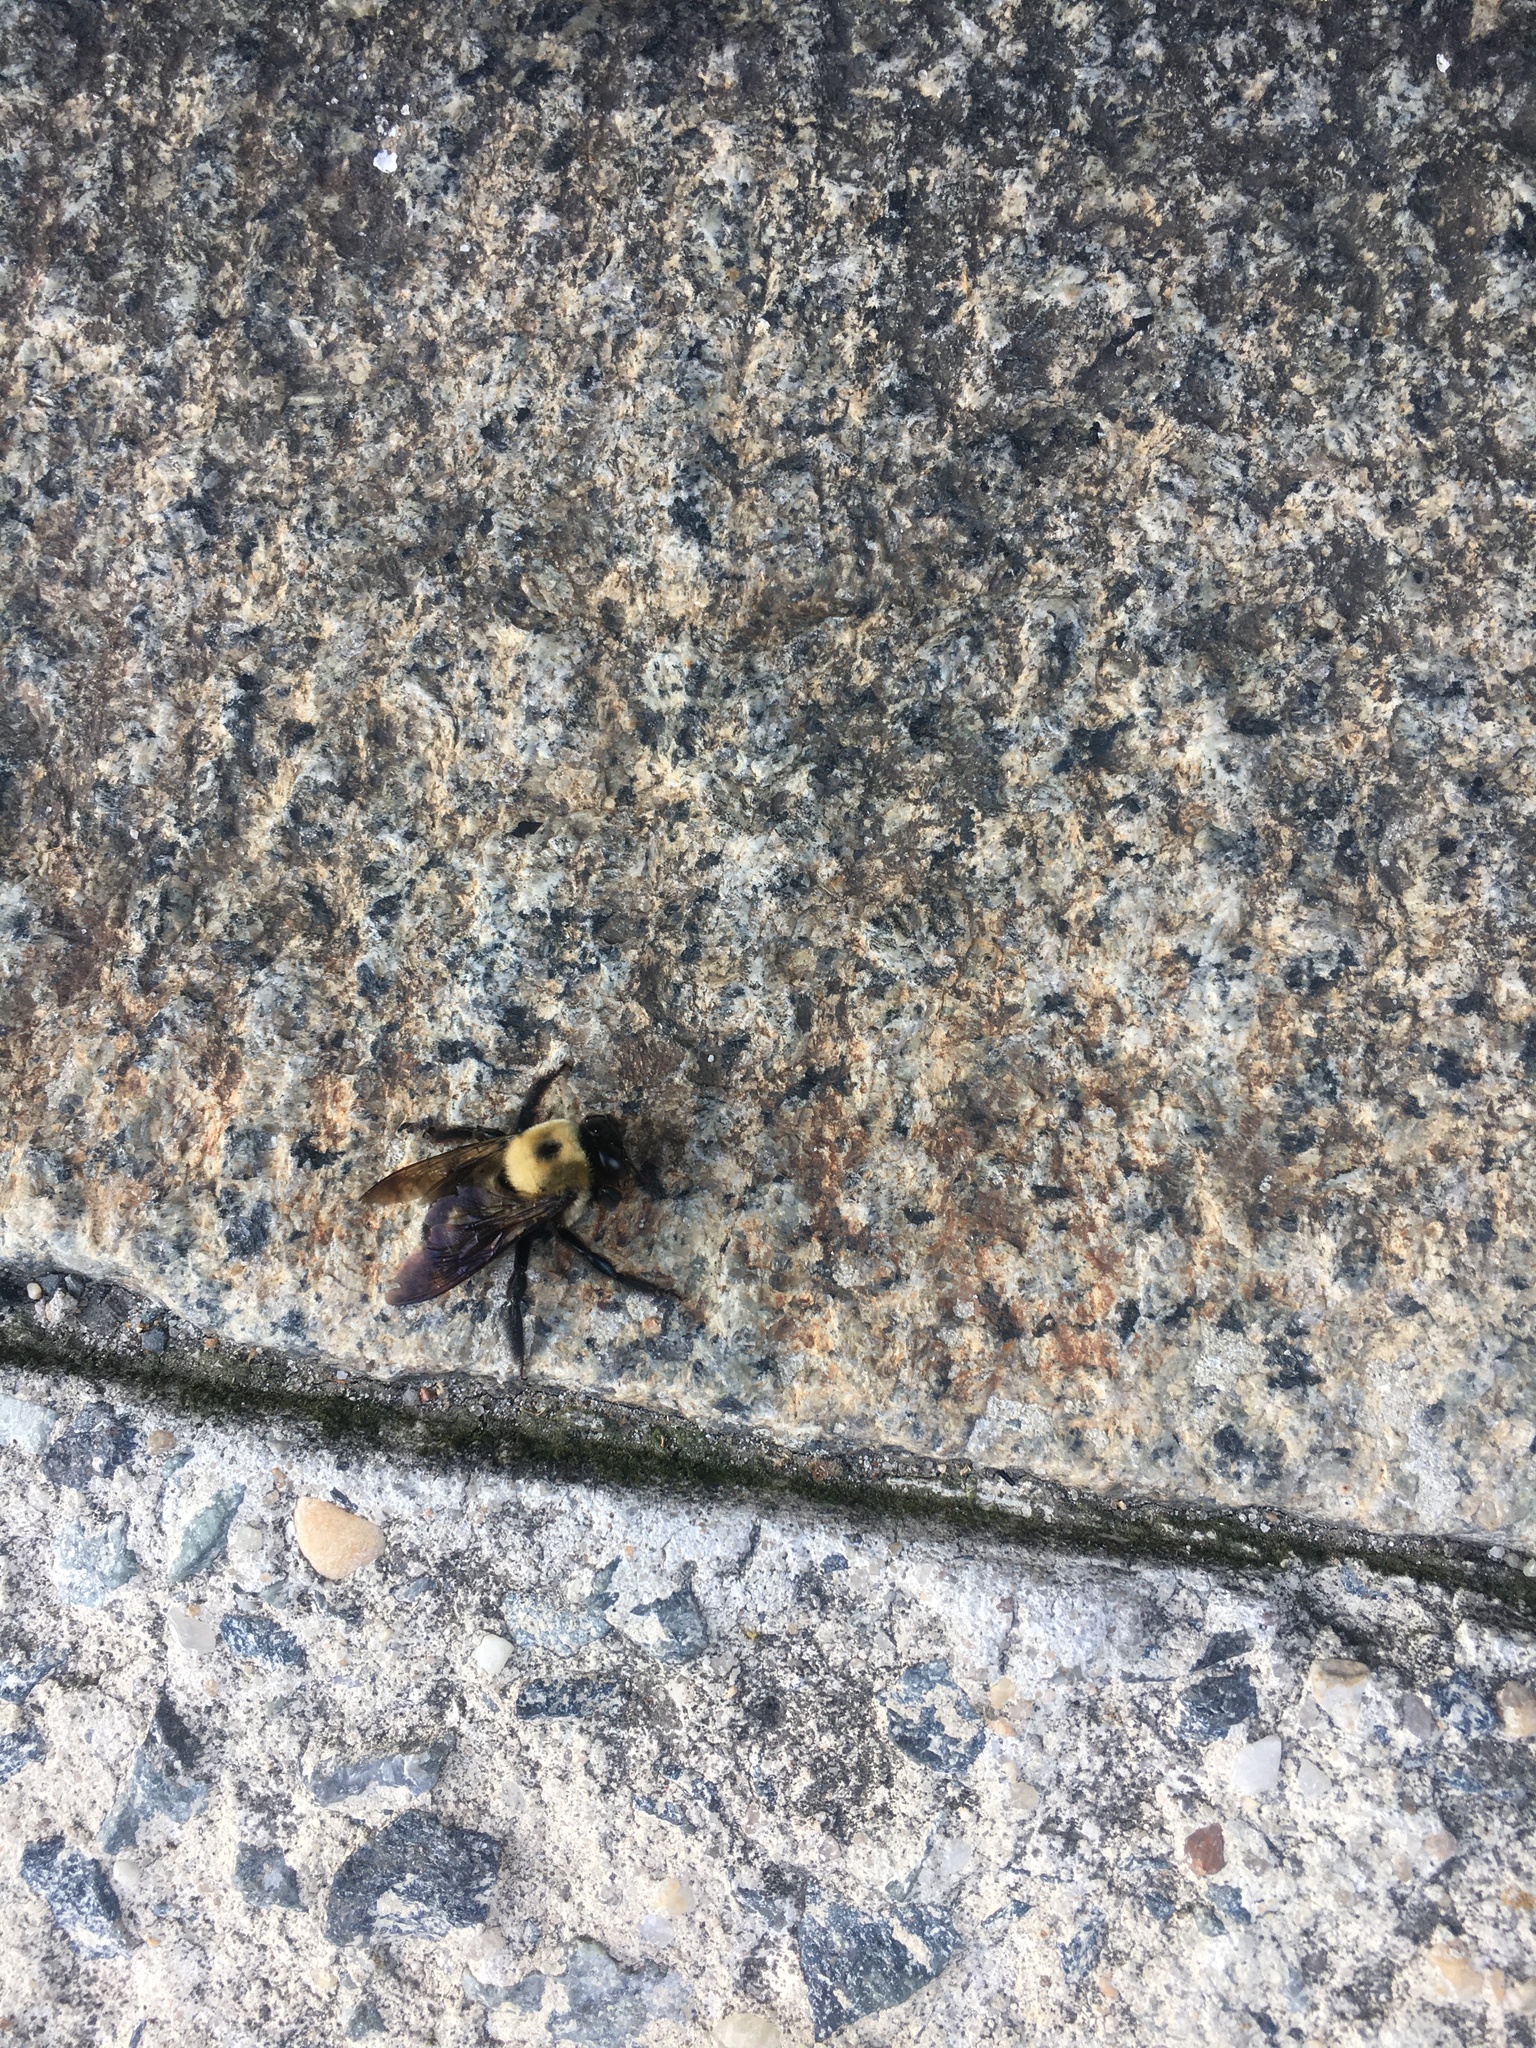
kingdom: Animalia
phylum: Arthropoda
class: Insecta
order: Hymenoptera
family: Apidae
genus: Xylocopa
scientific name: Xylocopa virginica
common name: Carpenter bee
